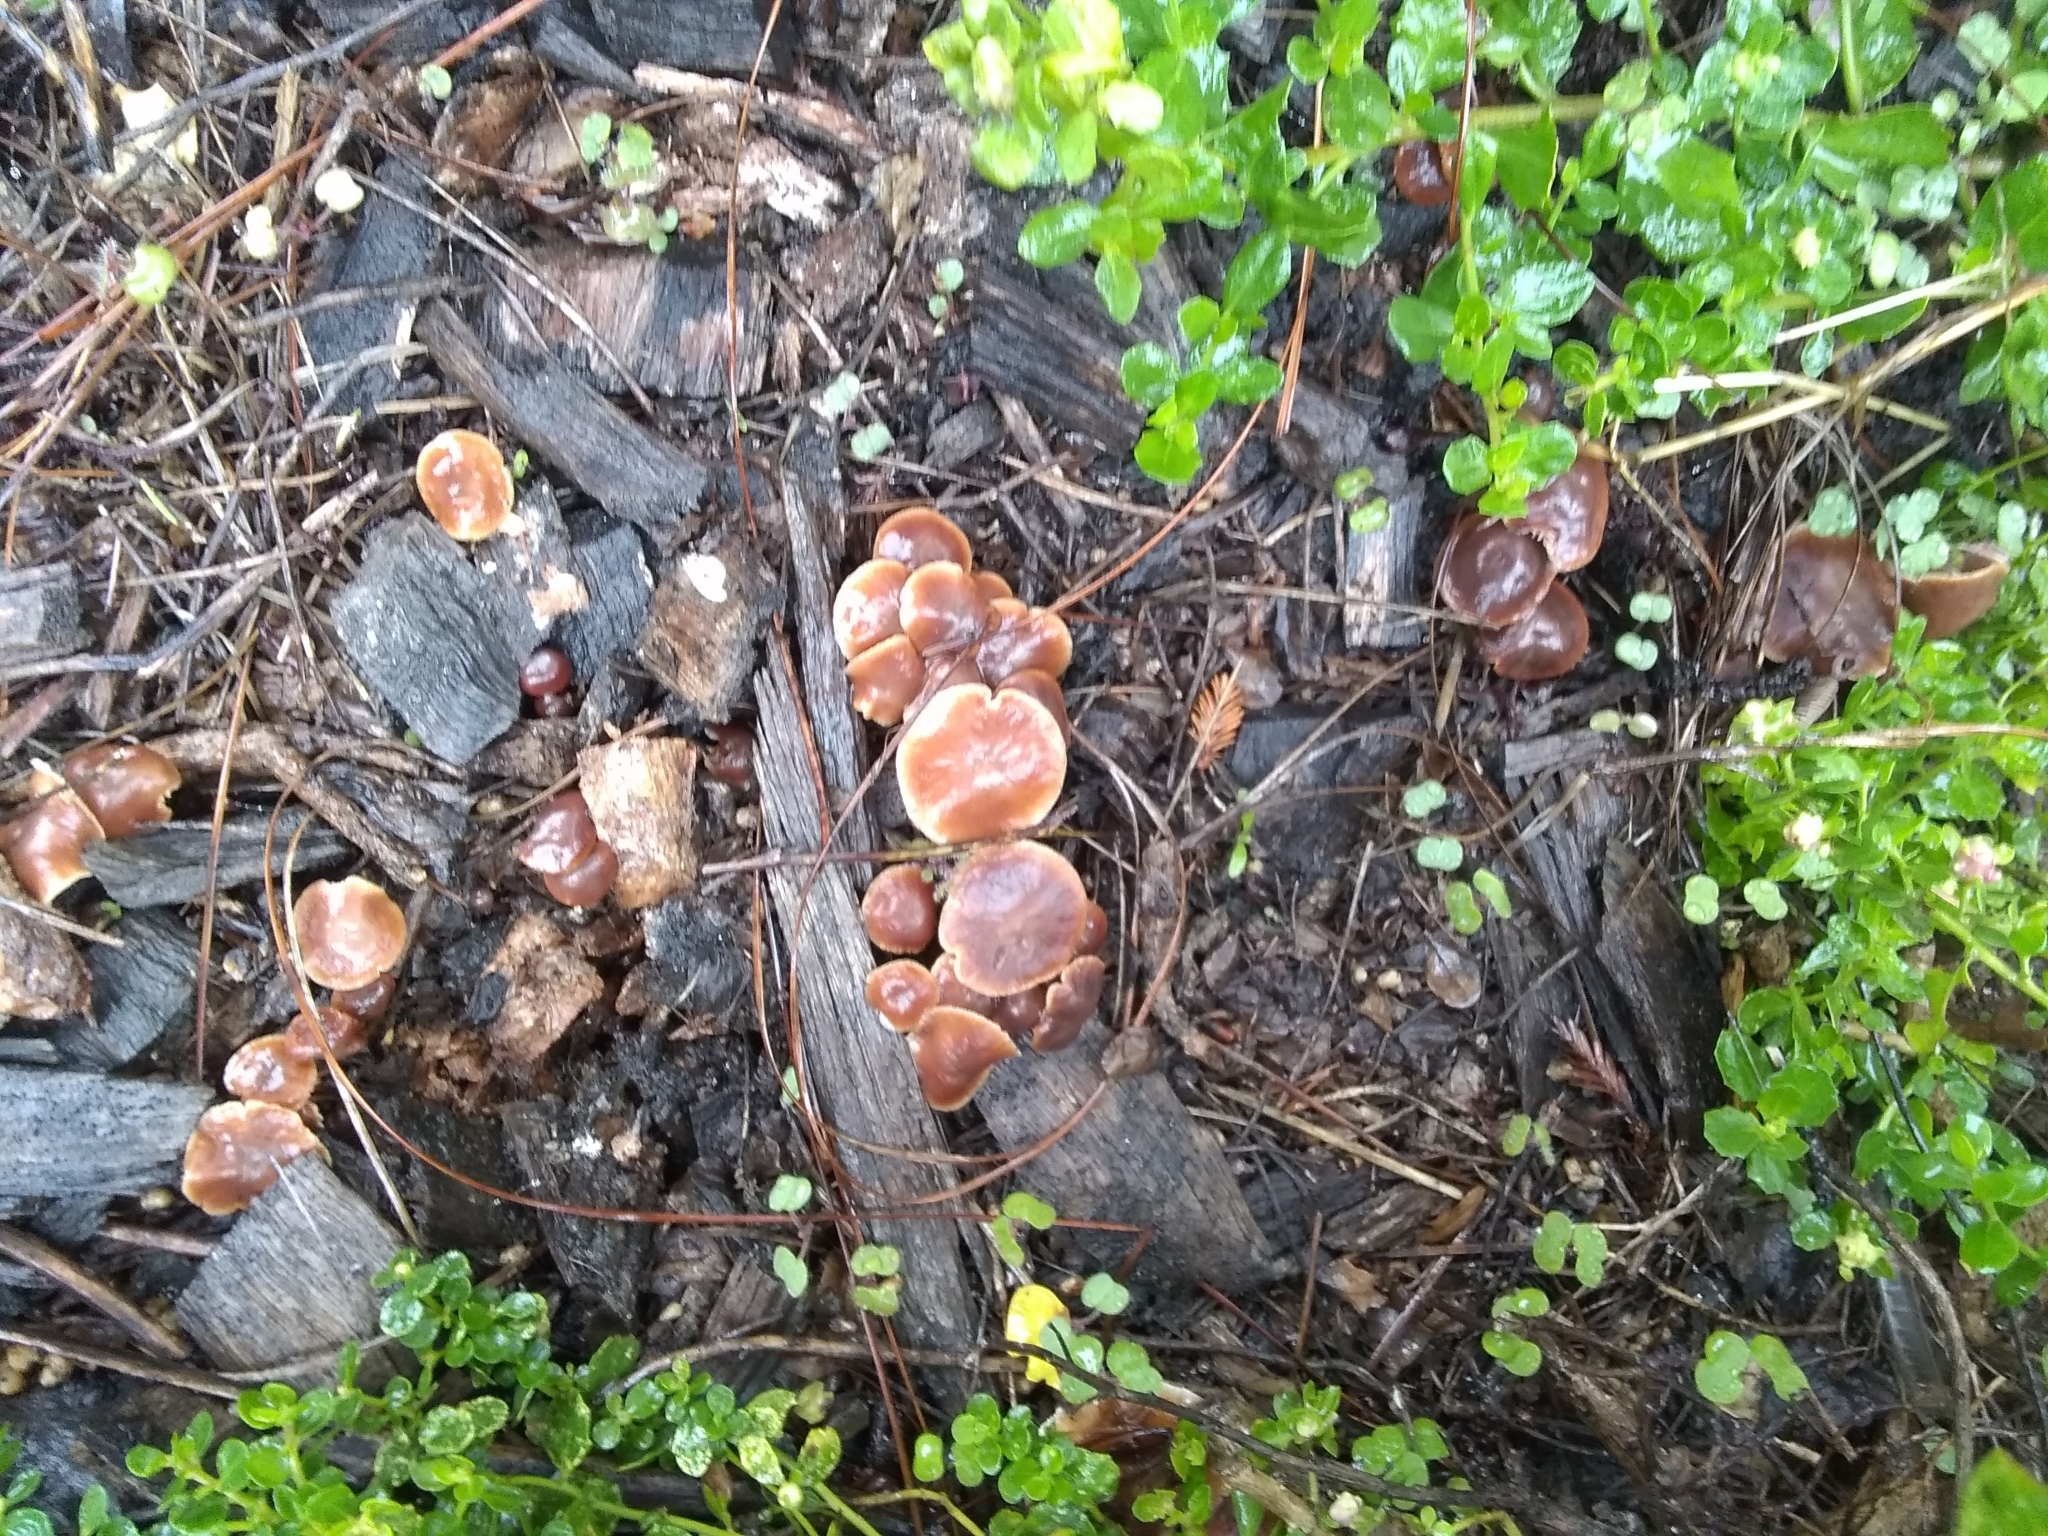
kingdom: Fungi
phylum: Basidiomycota
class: Agaricomycetes
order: Agaricales
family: Omphalotaceae
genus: Gymnopus
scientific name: Gymnopus brassicolens
